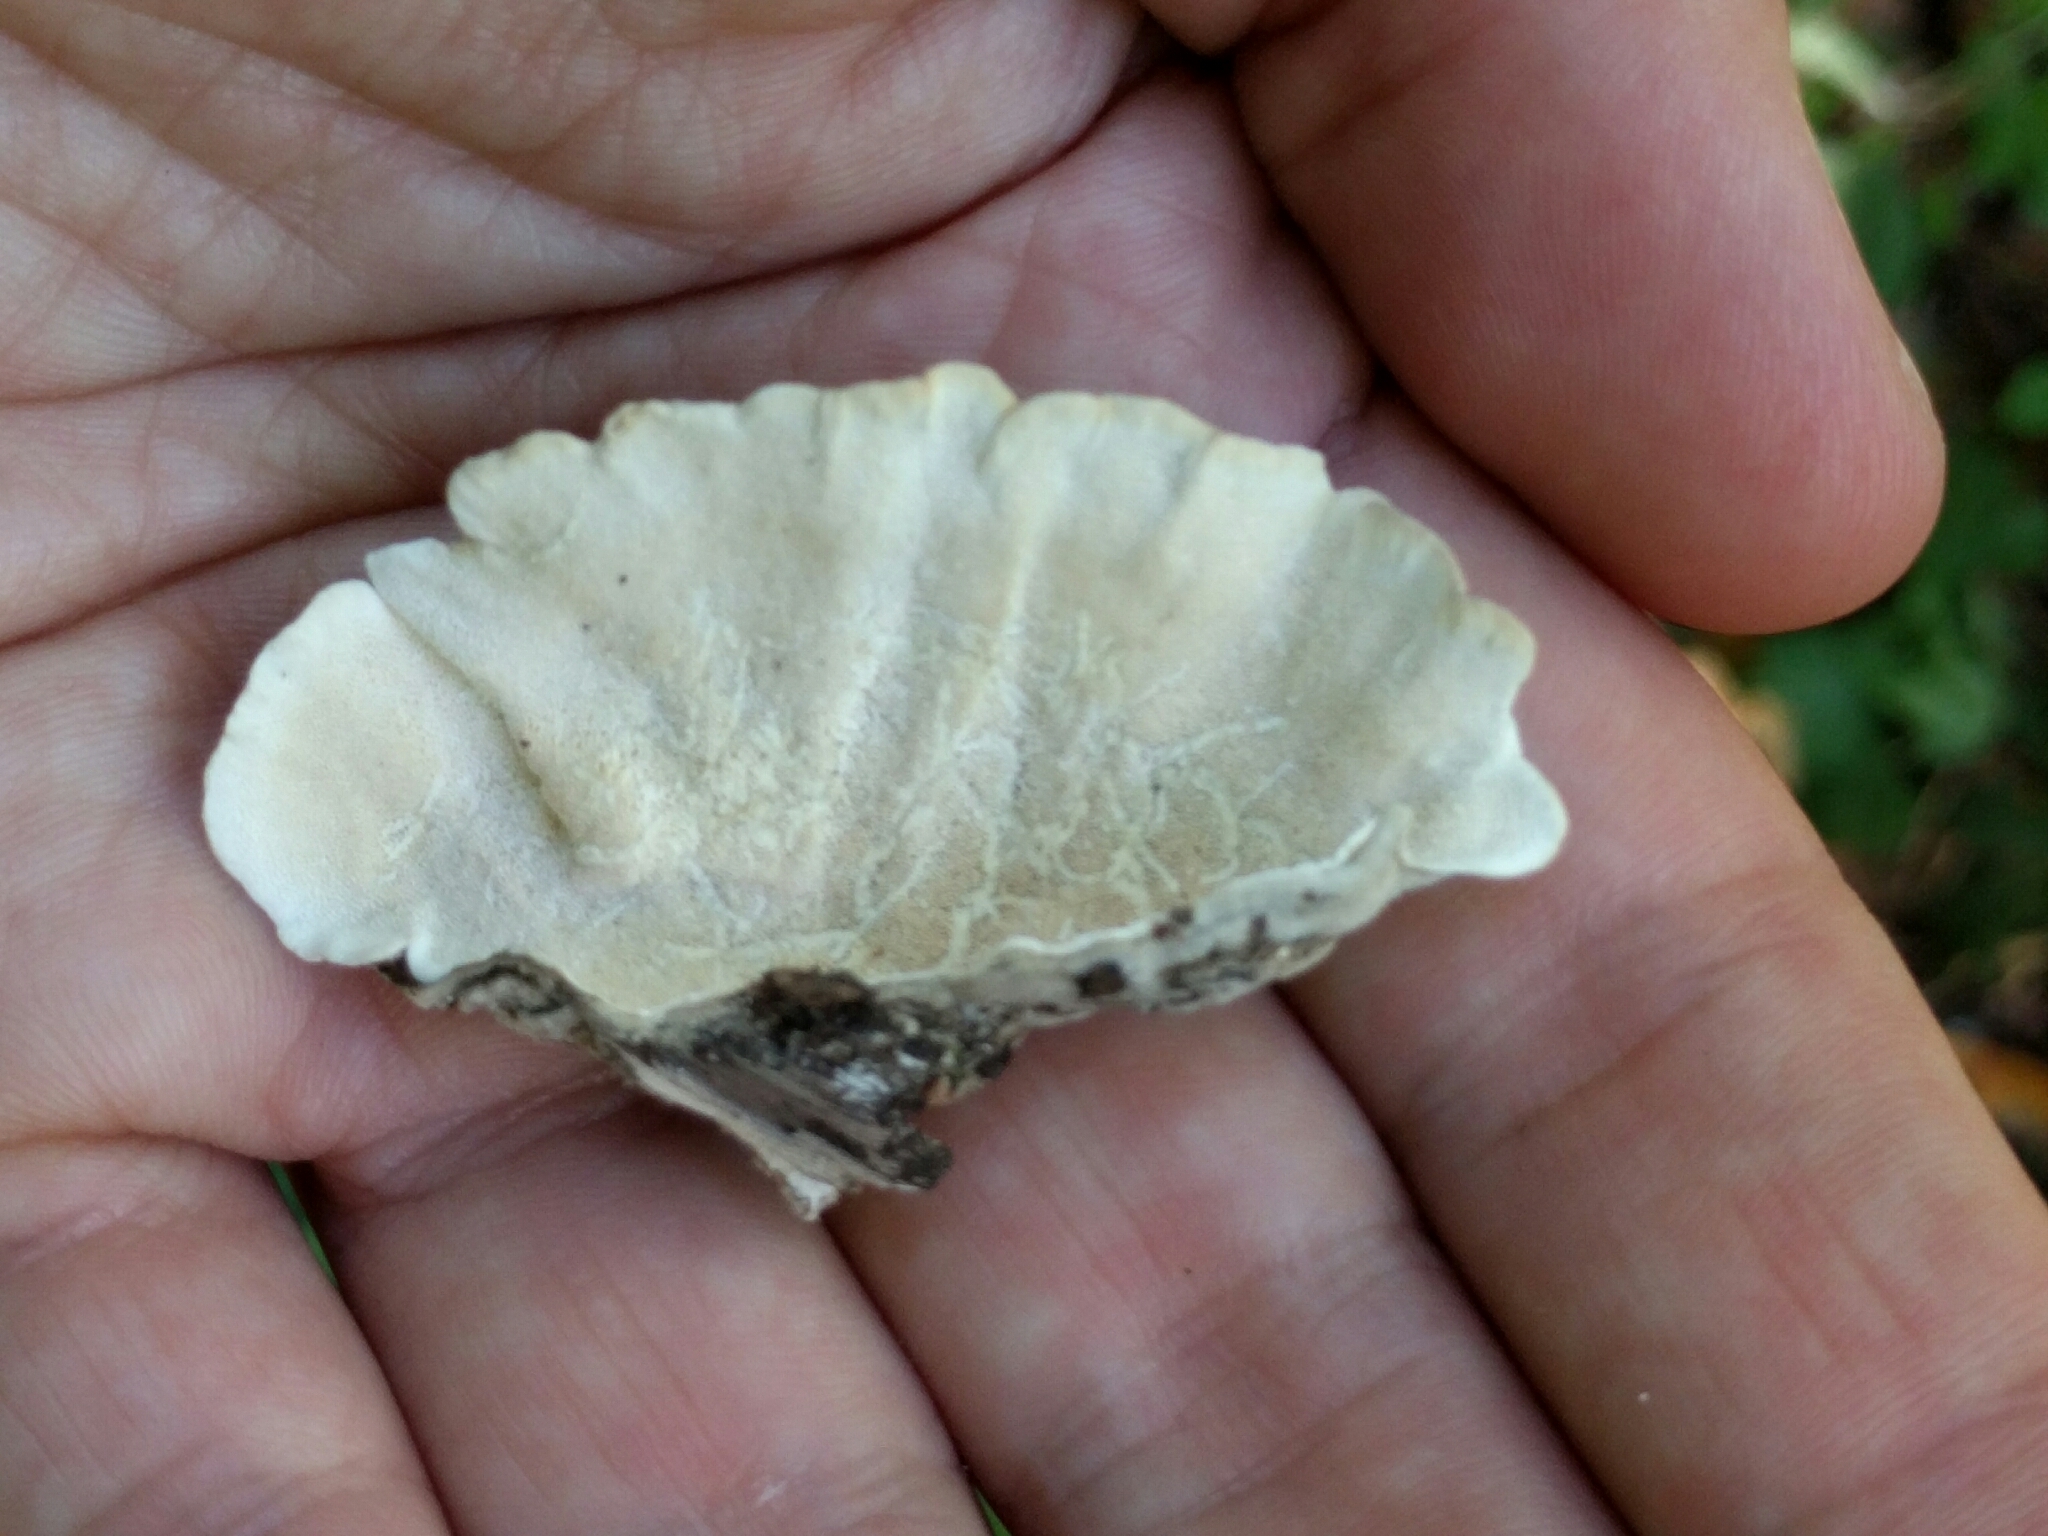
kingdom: Fungi
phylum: Basidiomycota
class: Agaricomycetes
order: Polyporales
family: Polyporaceae
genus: Trametes
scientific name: Trametes versicolor
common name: Turkeytail
